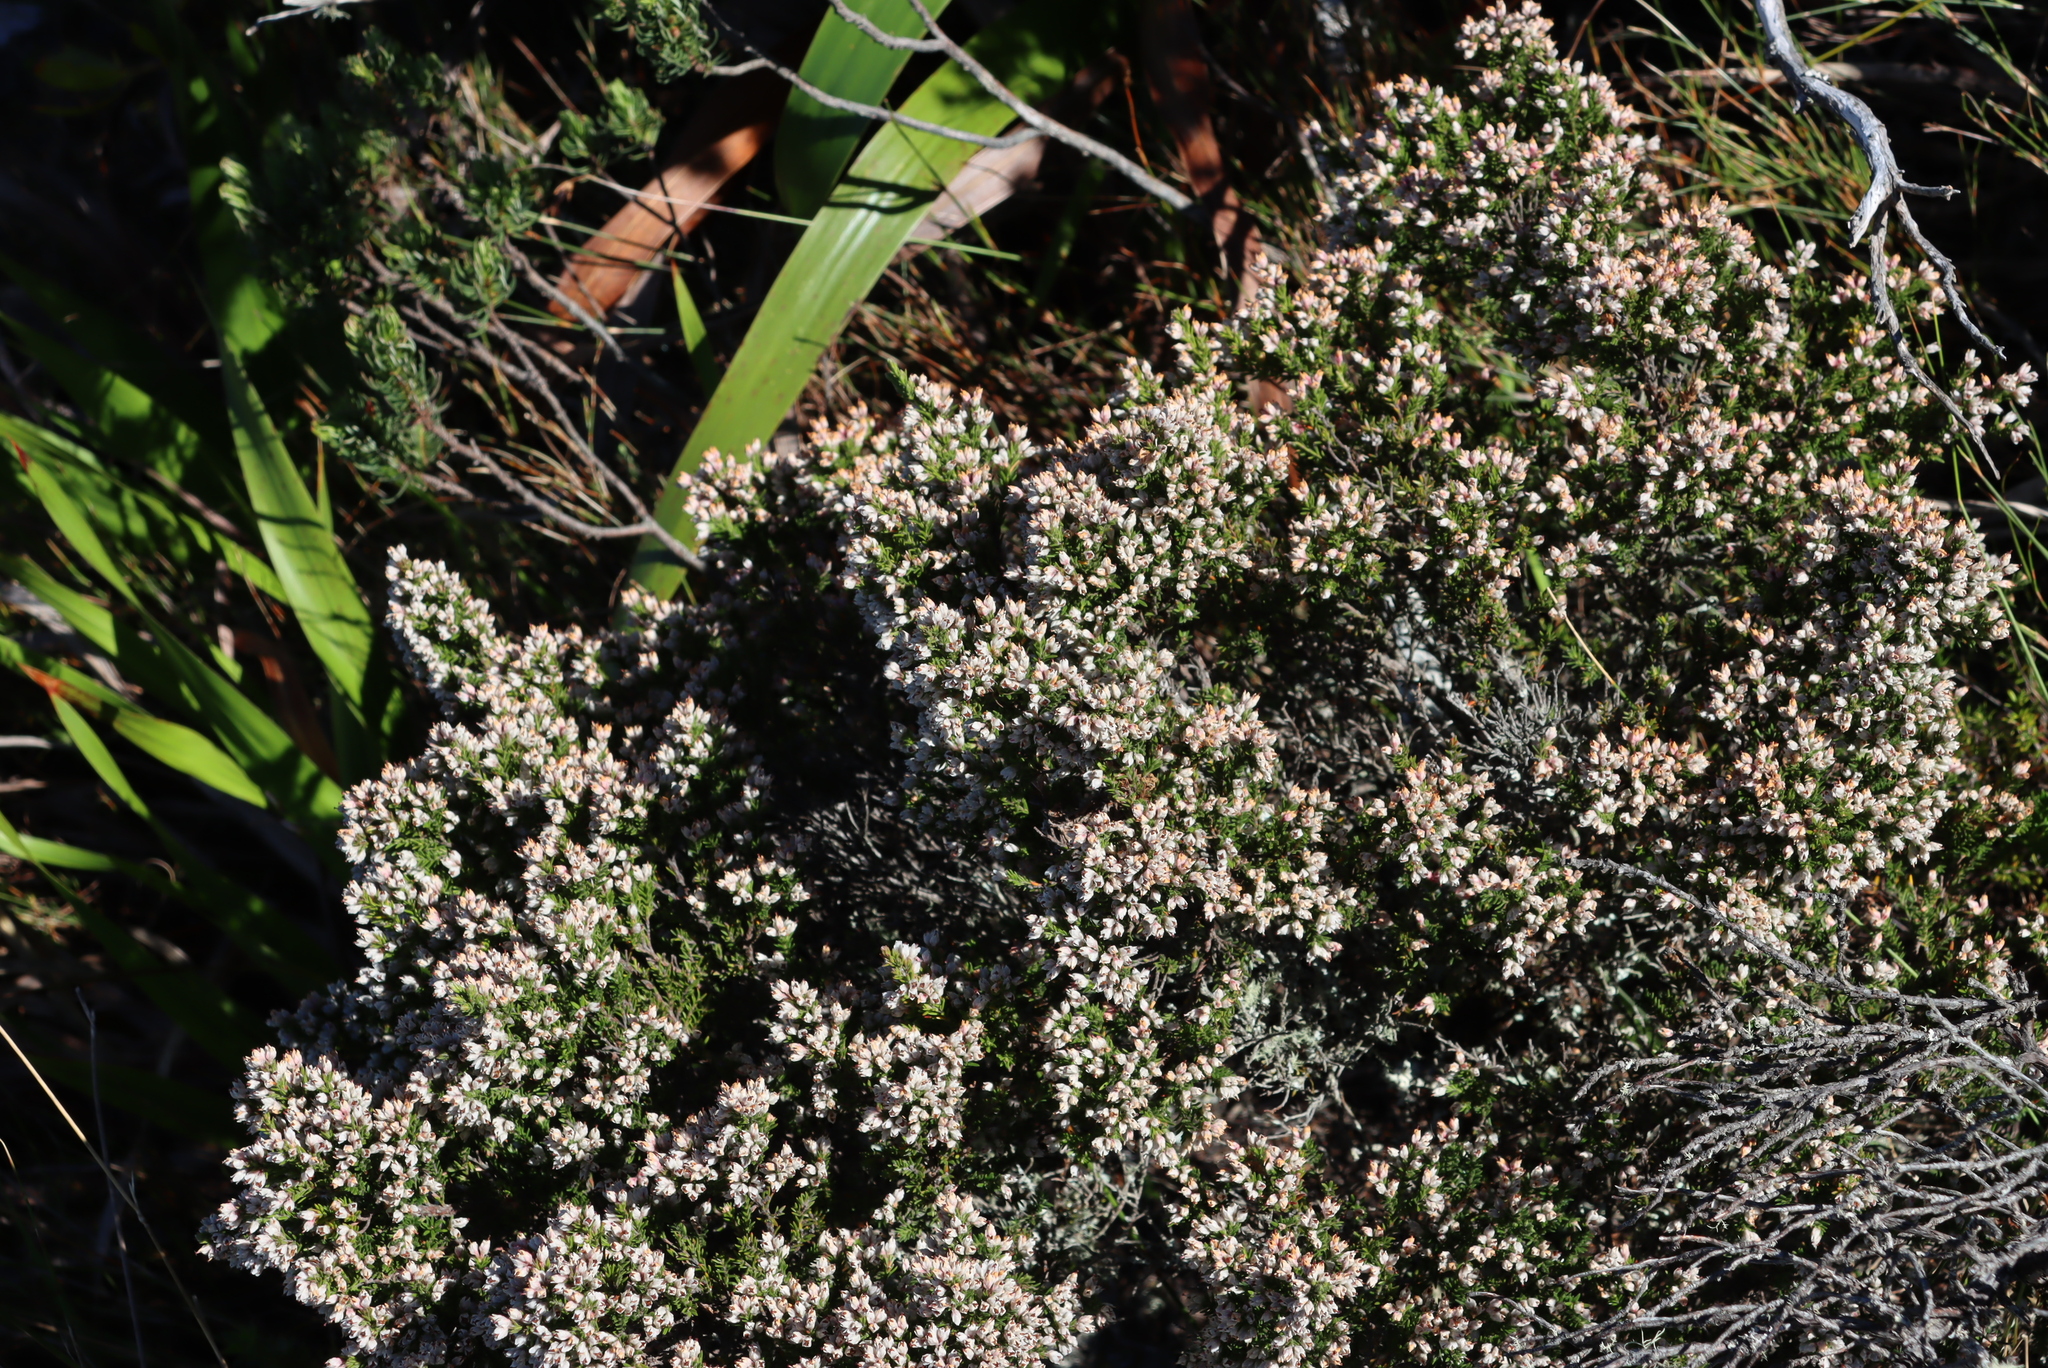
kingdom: Plantae
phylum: Tracheophyta
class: Magnoliopsida
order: Ericales
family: Ericaceae
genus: Erica
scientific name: Erica diosmifolia
